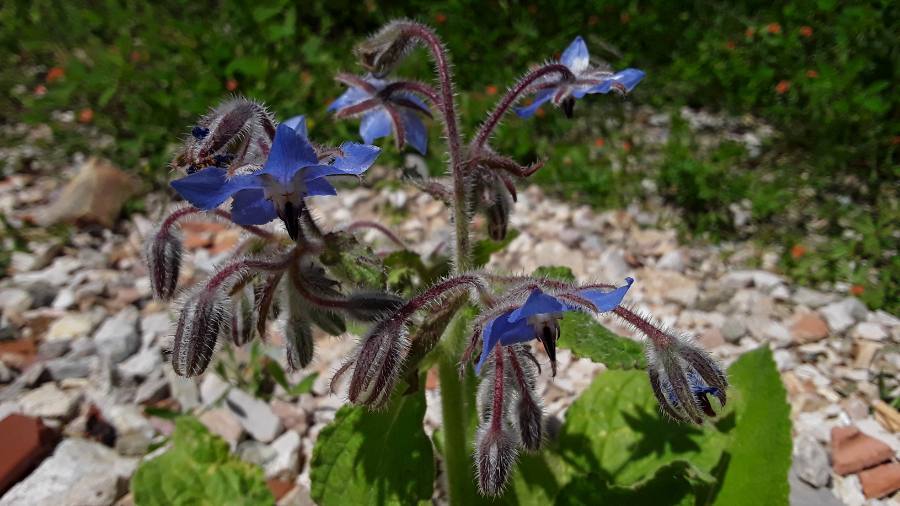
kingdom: Plantae
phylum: Tracheophyta
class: Magnoliopsida
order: Boraginales
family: Boraginaceae
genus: Borago
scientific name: Borago officinalis
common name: Borage
